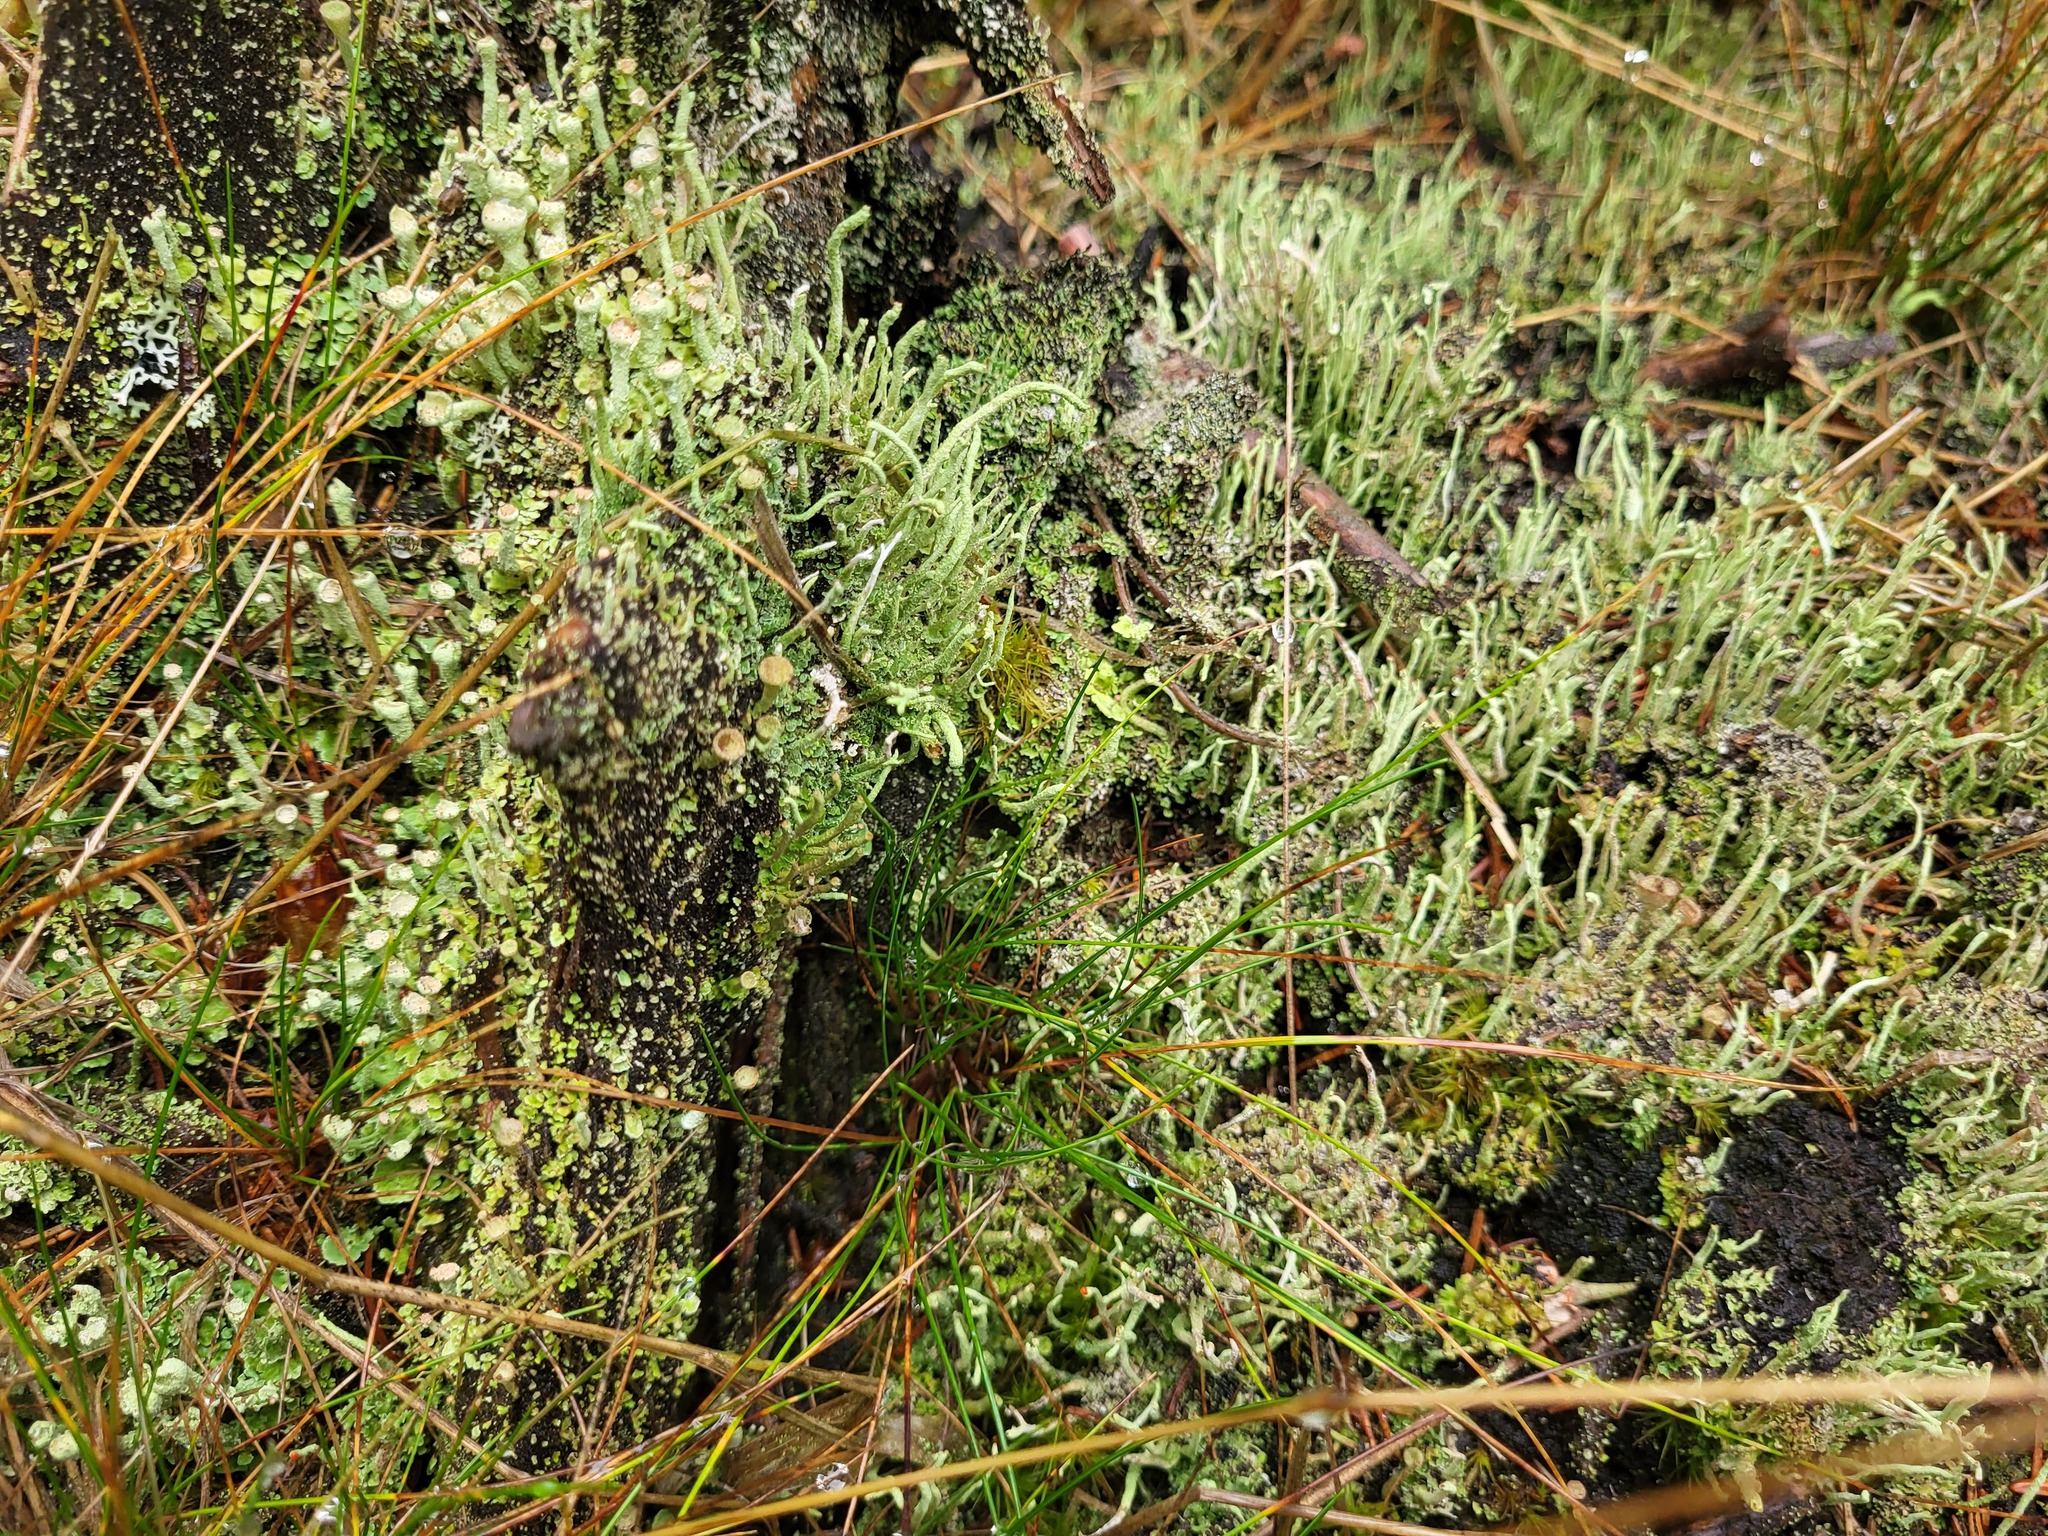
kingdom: Fungi
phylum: Ascomycota
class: Lecanoromycetes
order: Lecanorales
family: Cladoniaceae
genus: Cladonia
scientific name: Cladonia digitata
